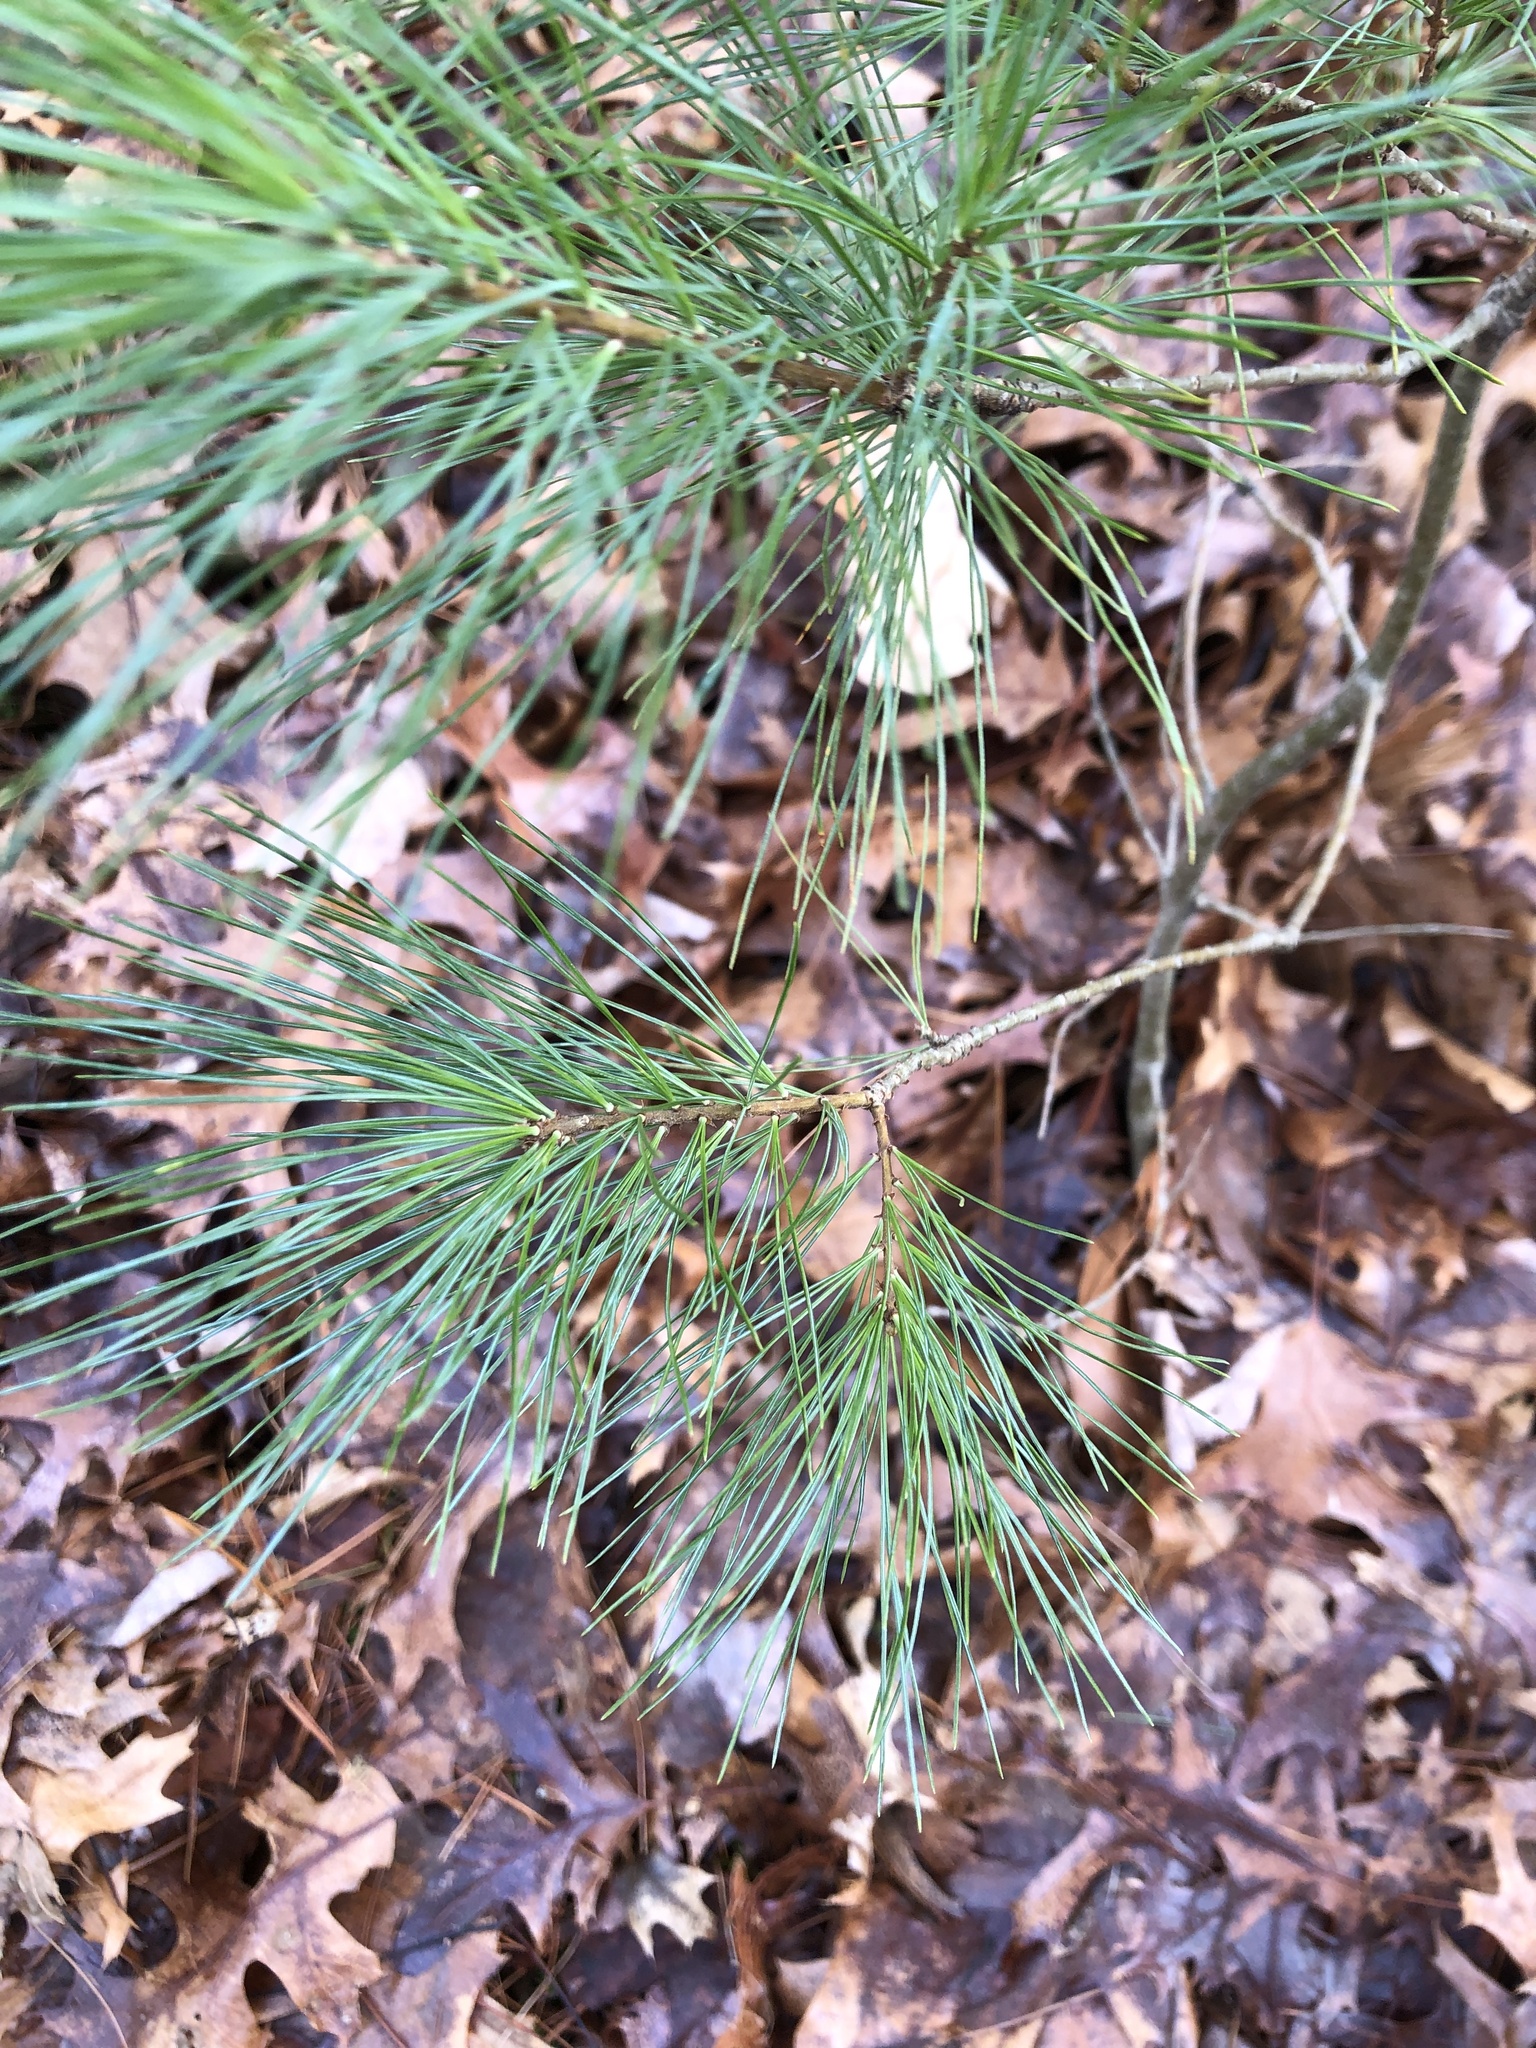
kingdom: Plantae
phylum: Tracheophyta
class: Pinopsida
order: Pinales
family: Pinaceae
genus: Pinus
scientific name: Pinus strobus
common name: Weymouth pine
